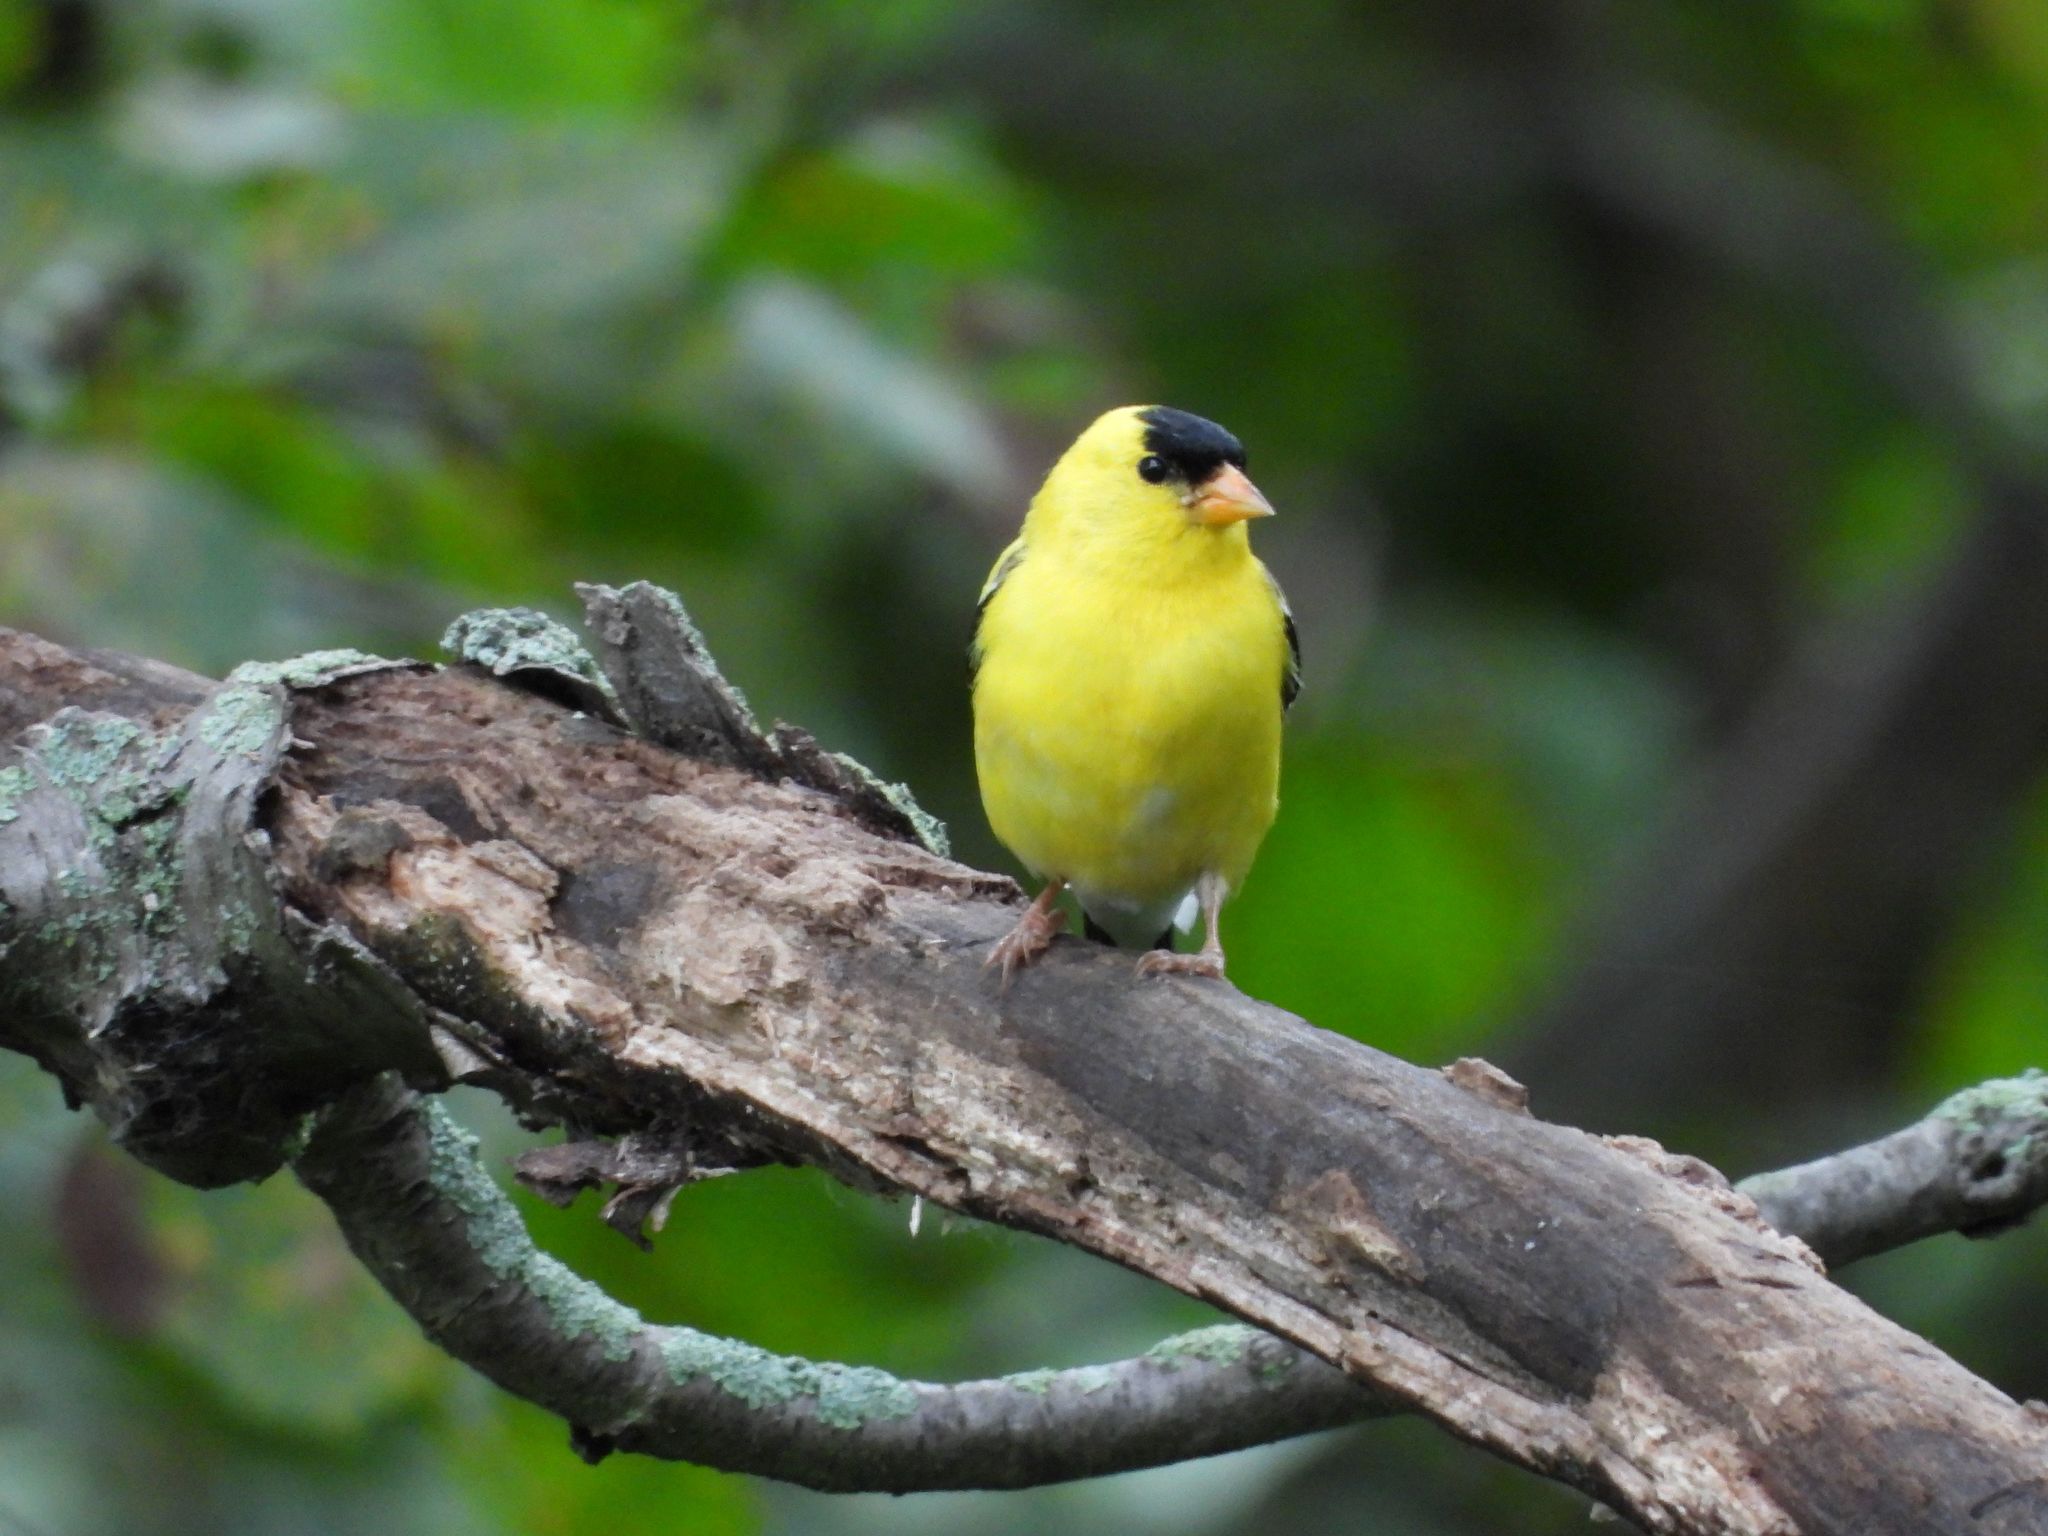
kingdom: Animalia
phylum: Chordata
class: Aves
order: Passeriformes
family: Fringillidae
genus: Spinus
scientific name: Spinus tristis
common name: American goldfinch
